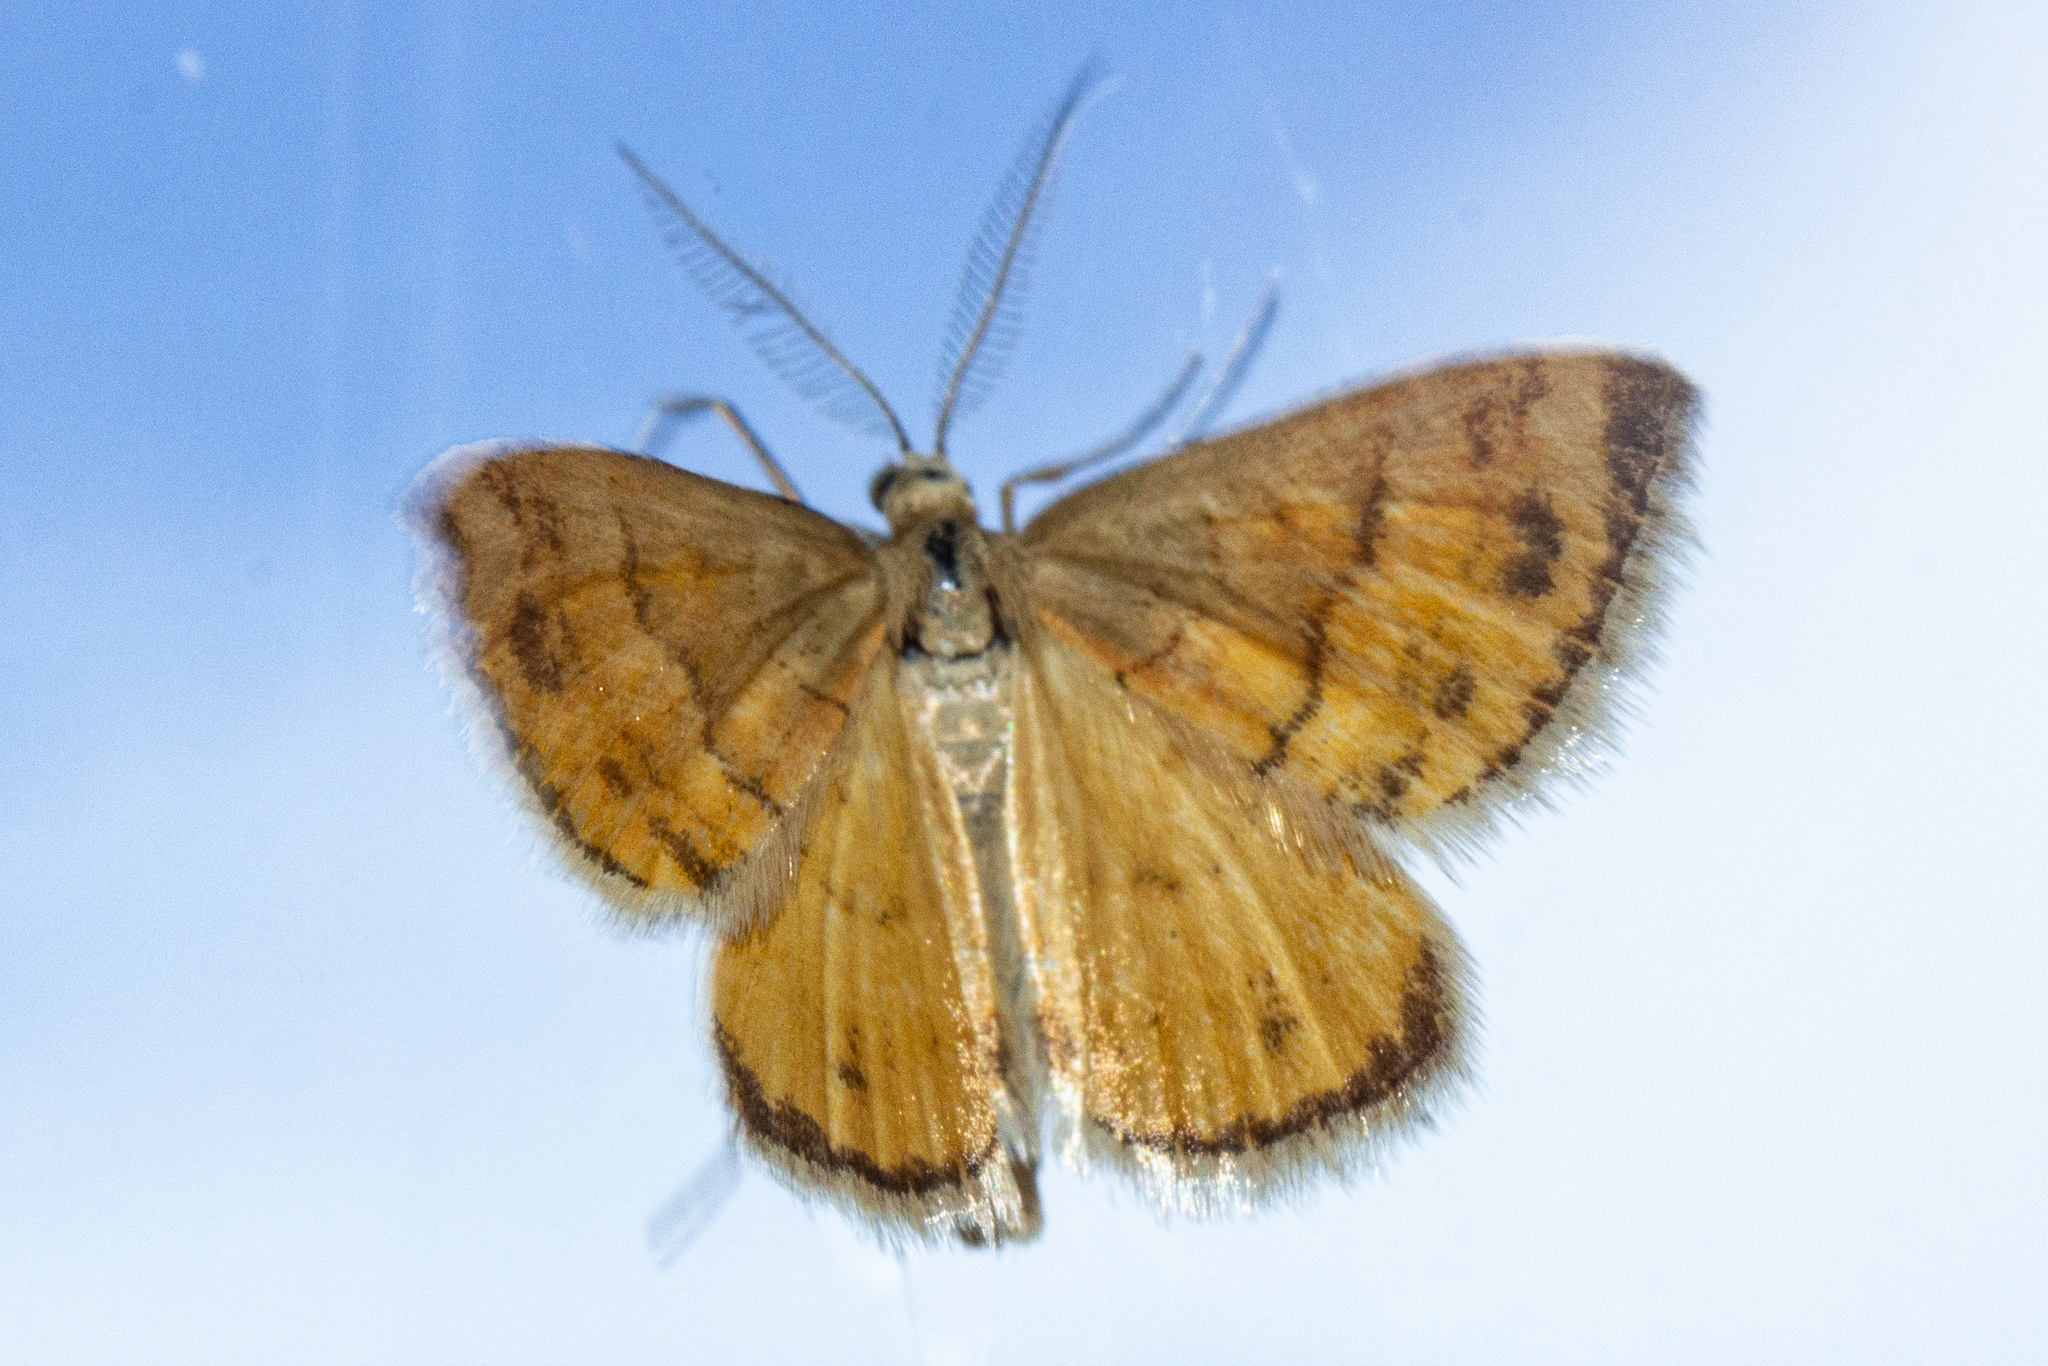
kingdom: Animalia
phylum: Arthropoda
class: Insecta
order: Lepidoptera
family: Geometridae
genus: Asaphodes
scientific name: Asaphodes abrogata
